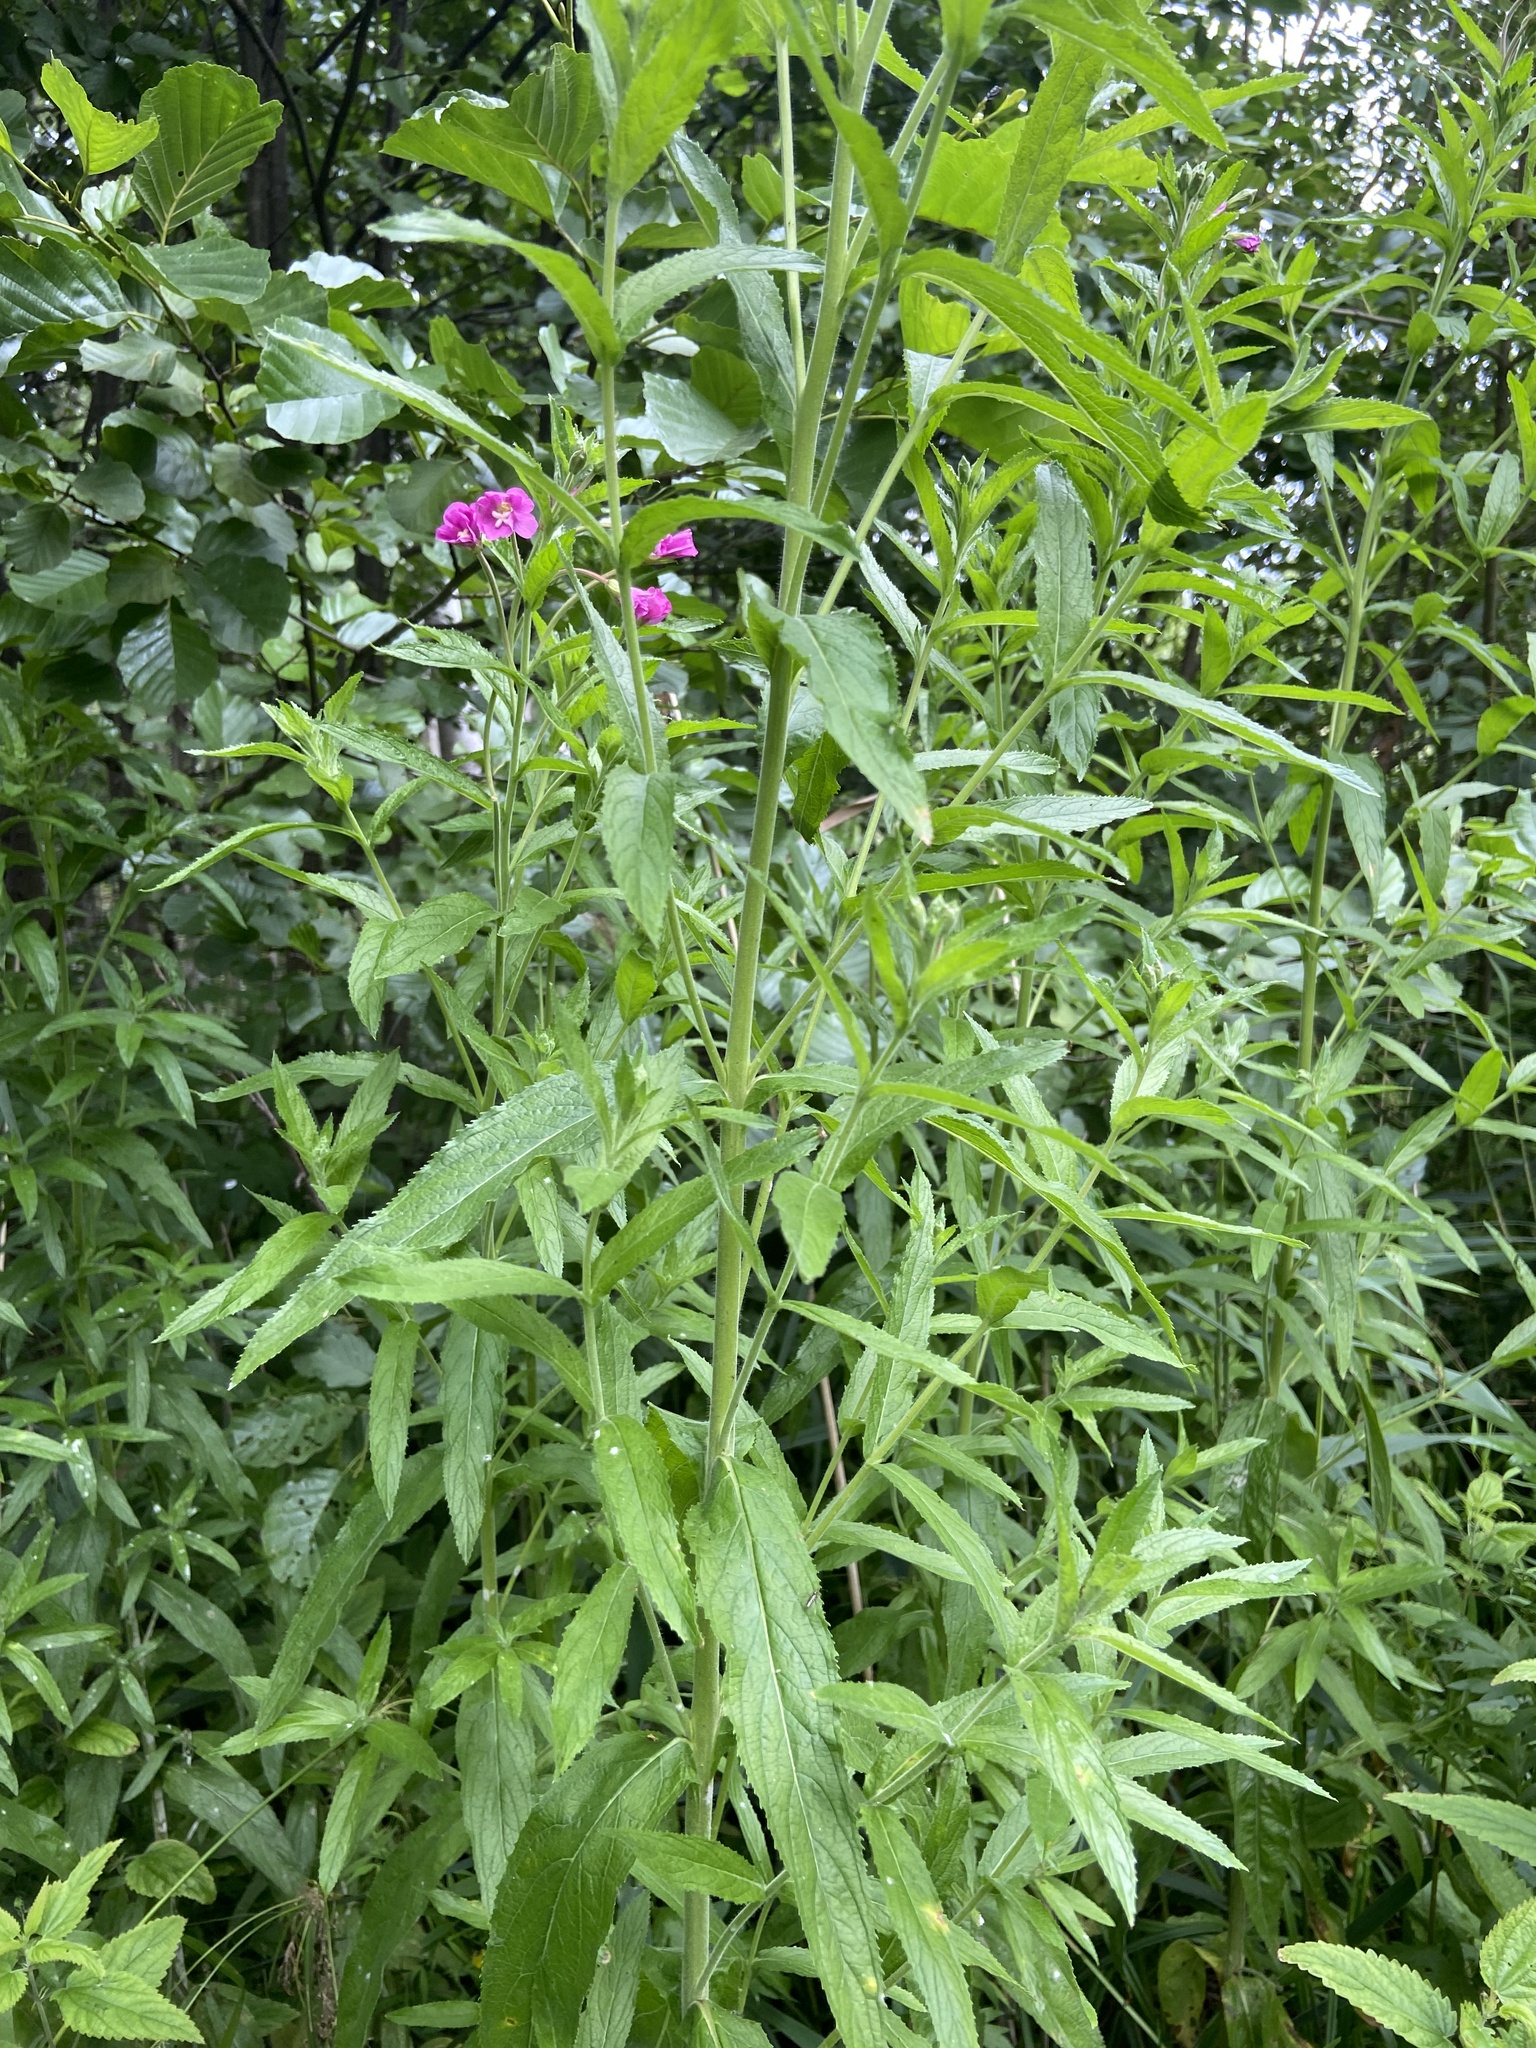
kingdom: Plantae
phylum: Tracheophyta
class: Magnoliopsida
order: Myrtales
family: Onagraceae
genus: Epilobium
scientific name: Epilobium hirsutum
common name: Great willowherb
